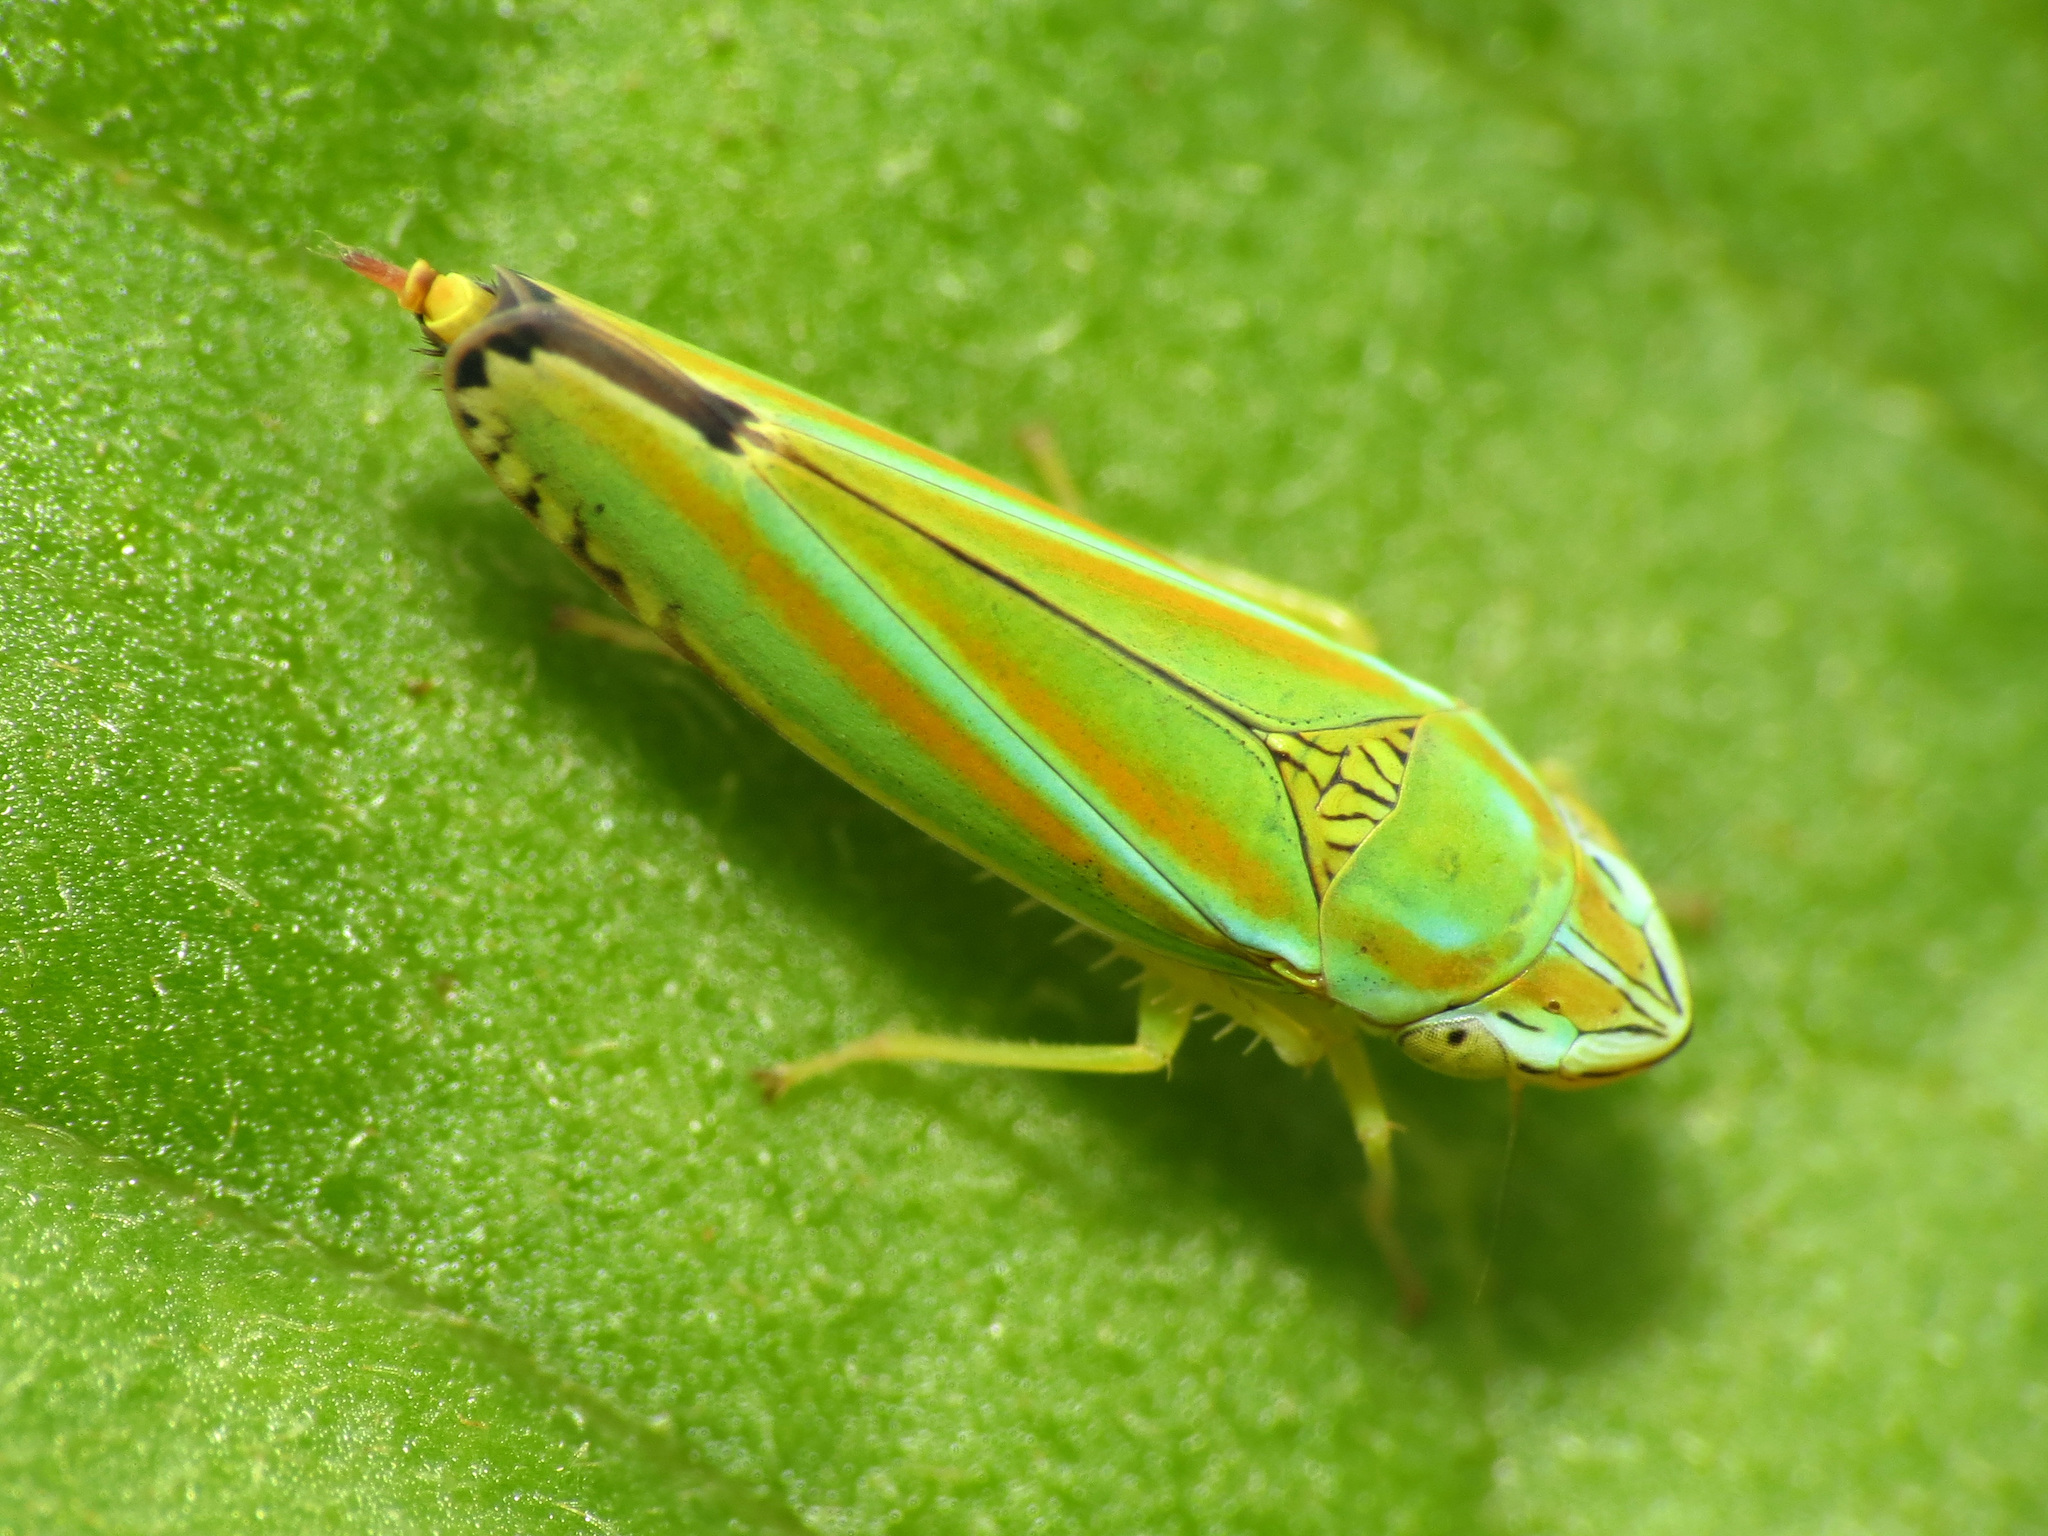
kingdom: Animalia
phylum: Arthropoda
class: Insecta
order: Hemiptera
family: Cicadellidae
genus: Graphocephala
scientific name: Graphocephala versuta
